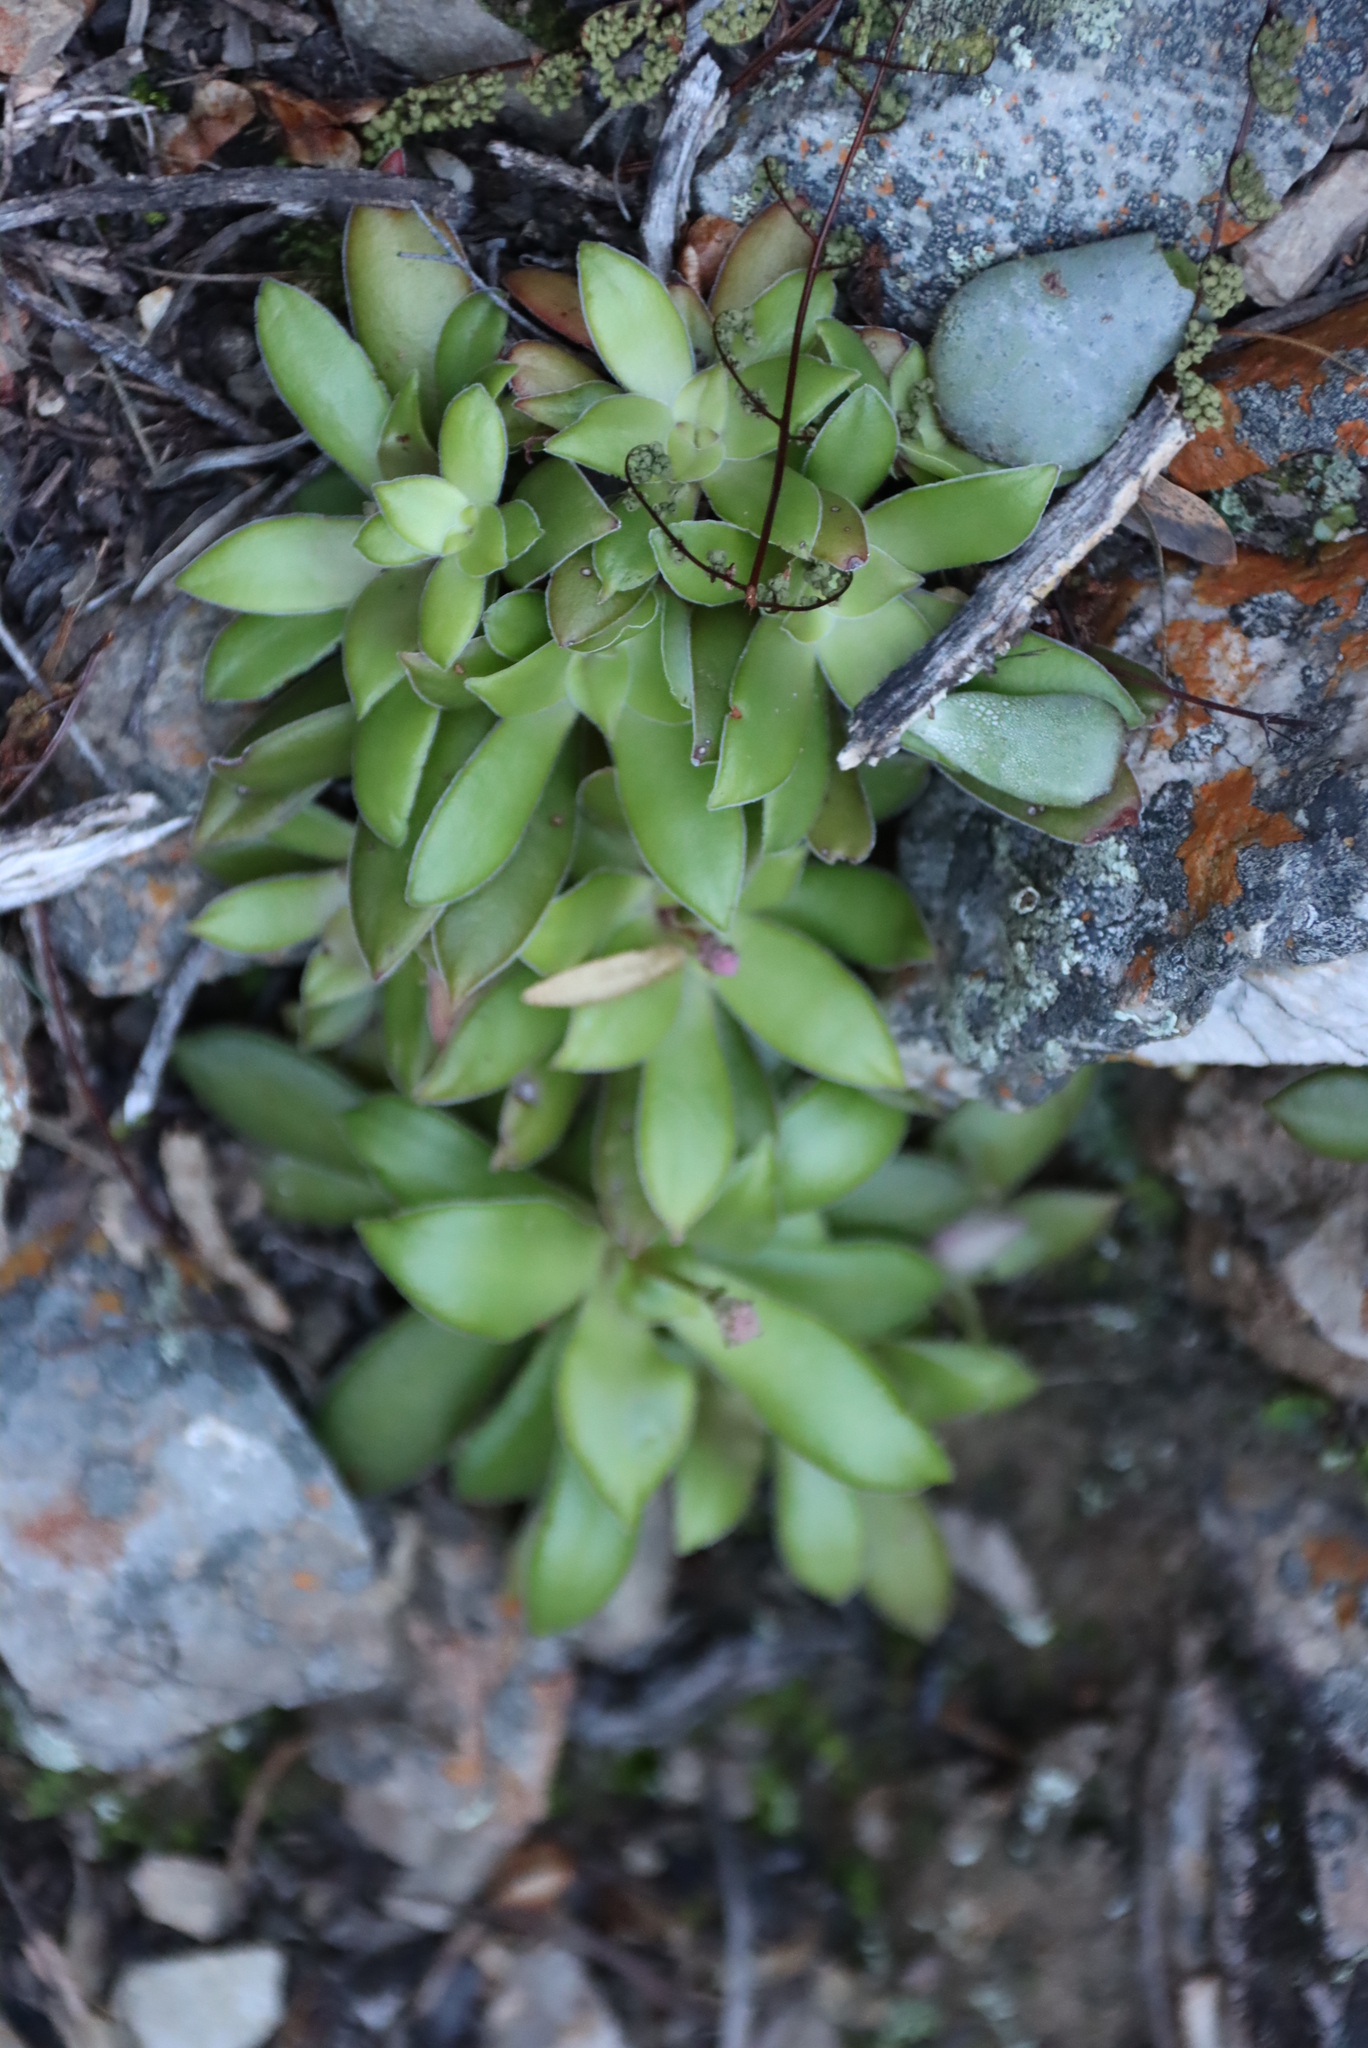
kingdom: Plantae
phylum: Tracheophyta
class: Magnoliopsida
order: Saxifragales
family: Crassulaceae
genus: Crassula
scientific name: Crassula orbicularis
